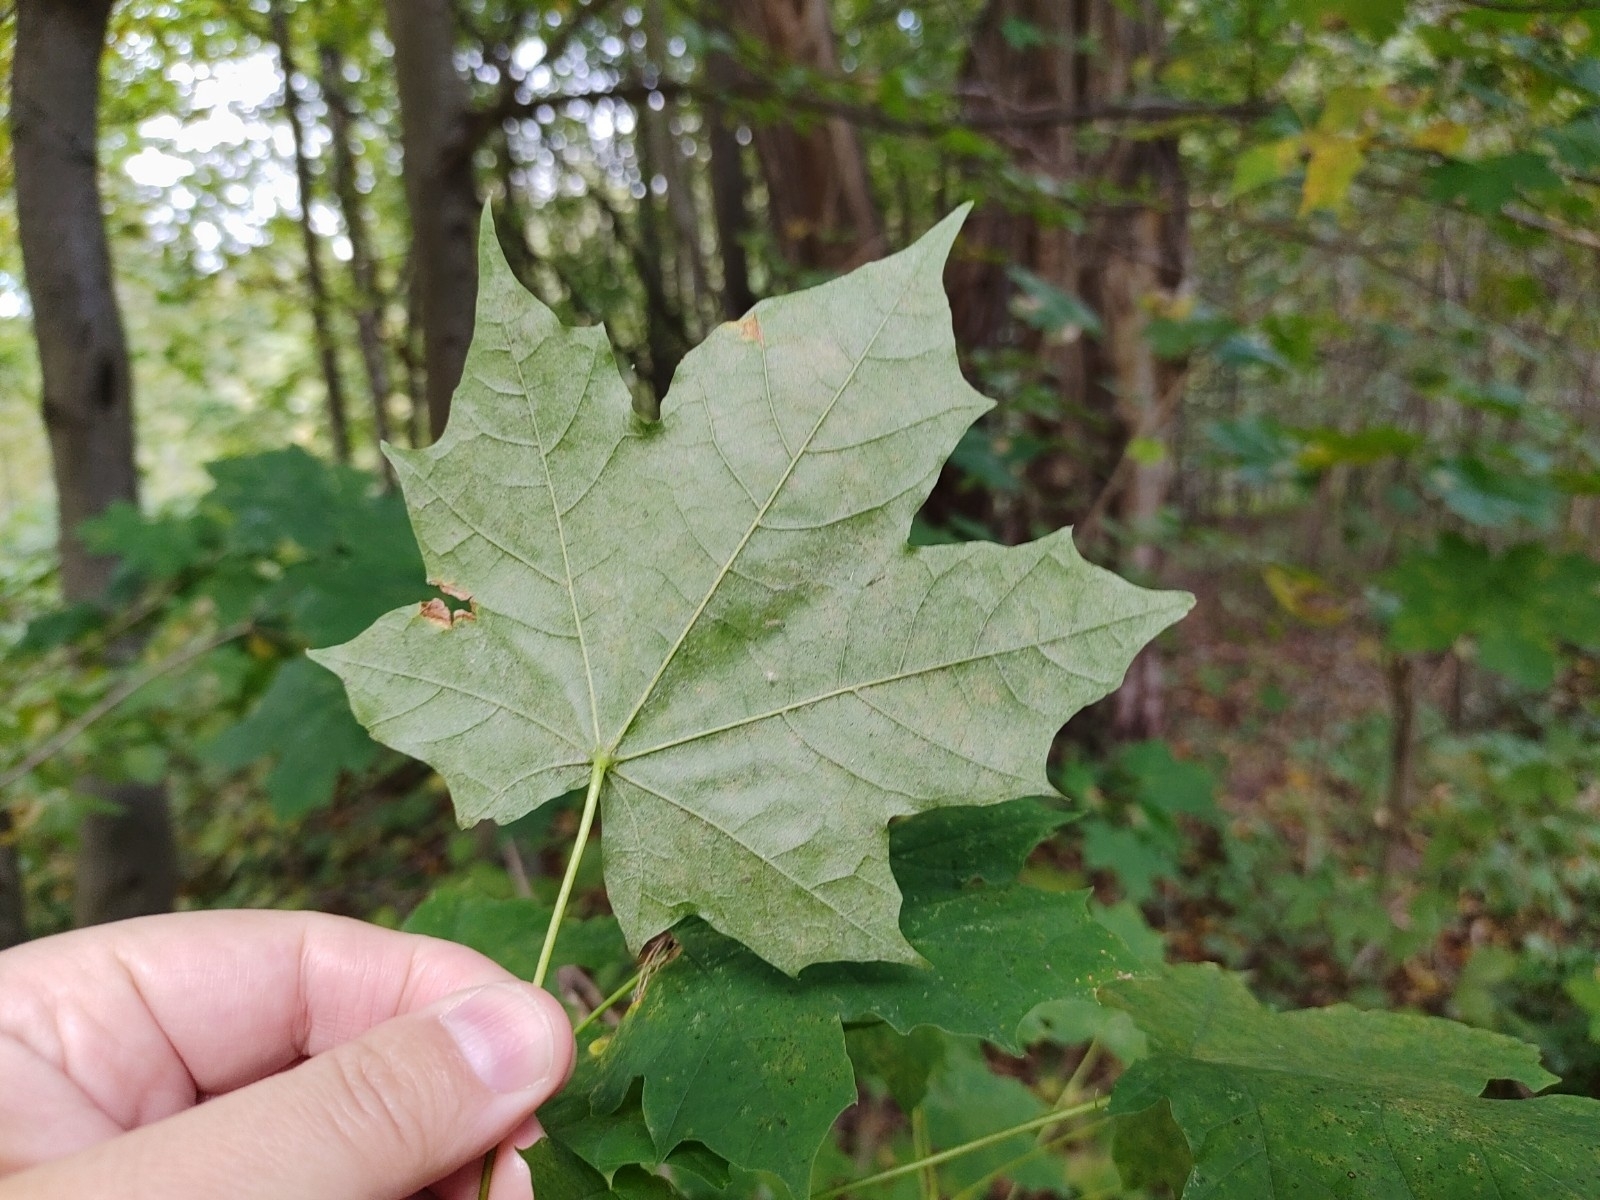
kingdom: Plantae
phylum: Tracheophyta
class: Magnoliopsida
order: Sapindales
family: Sapindaceae
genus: Acer
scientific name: Acer platanoides
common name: Norway maple
